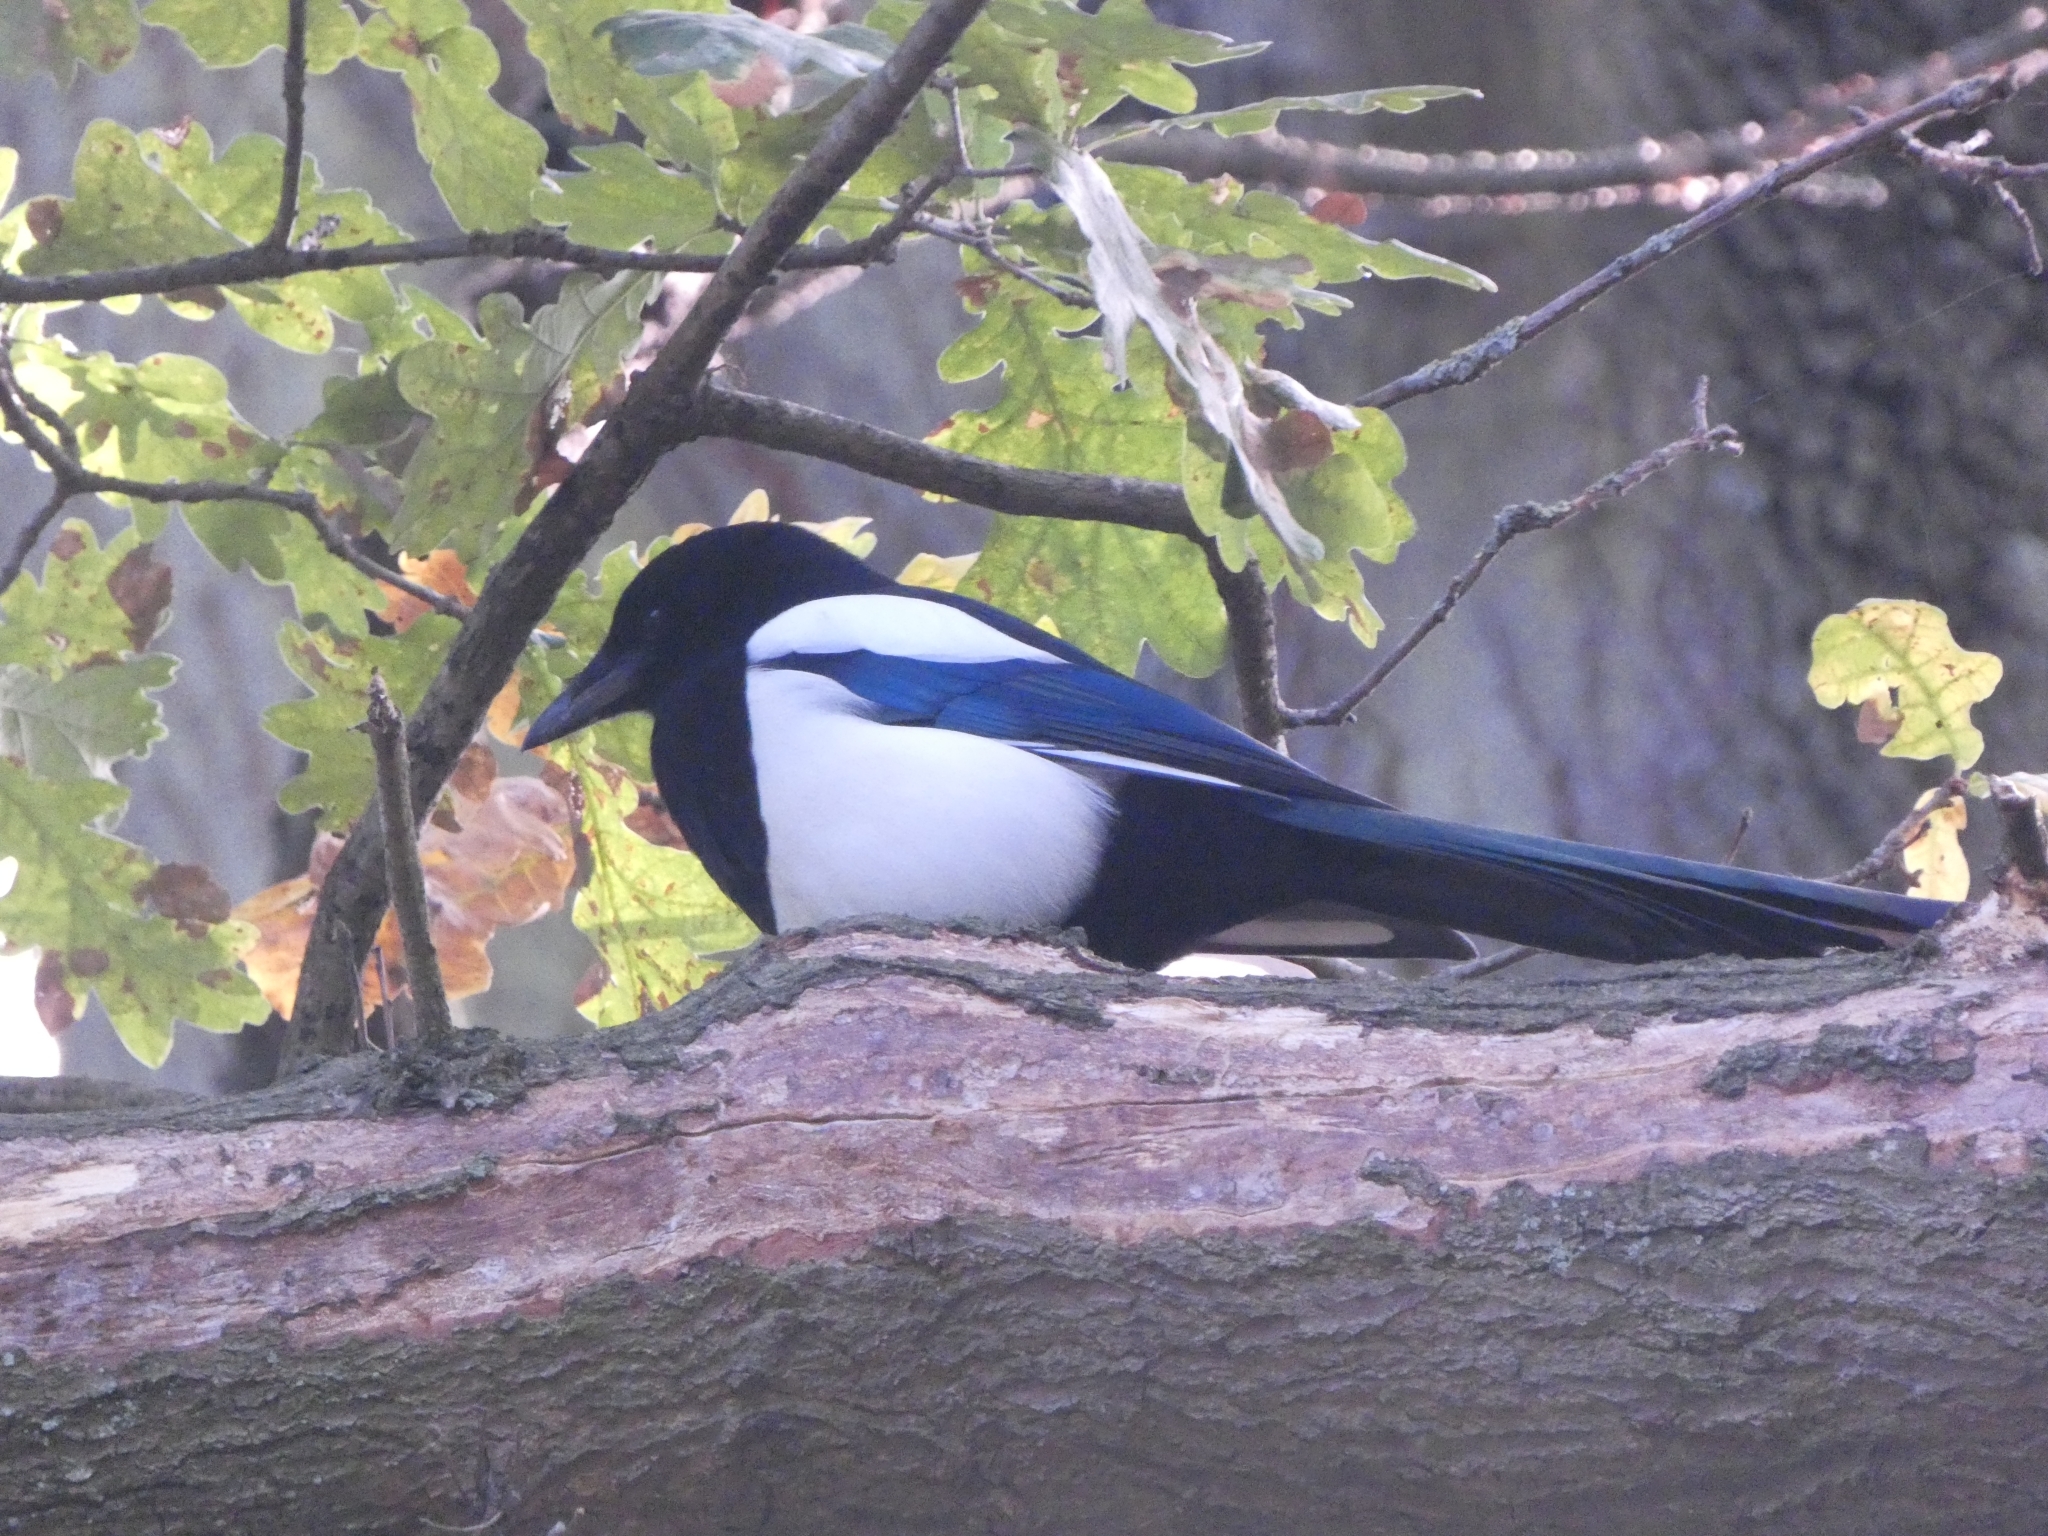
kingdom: Animalia
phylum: Chordata
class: Aves
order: Passeriformes
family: Corvidae
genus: Pica
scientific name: Pica pica
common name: Eurasian magpie
